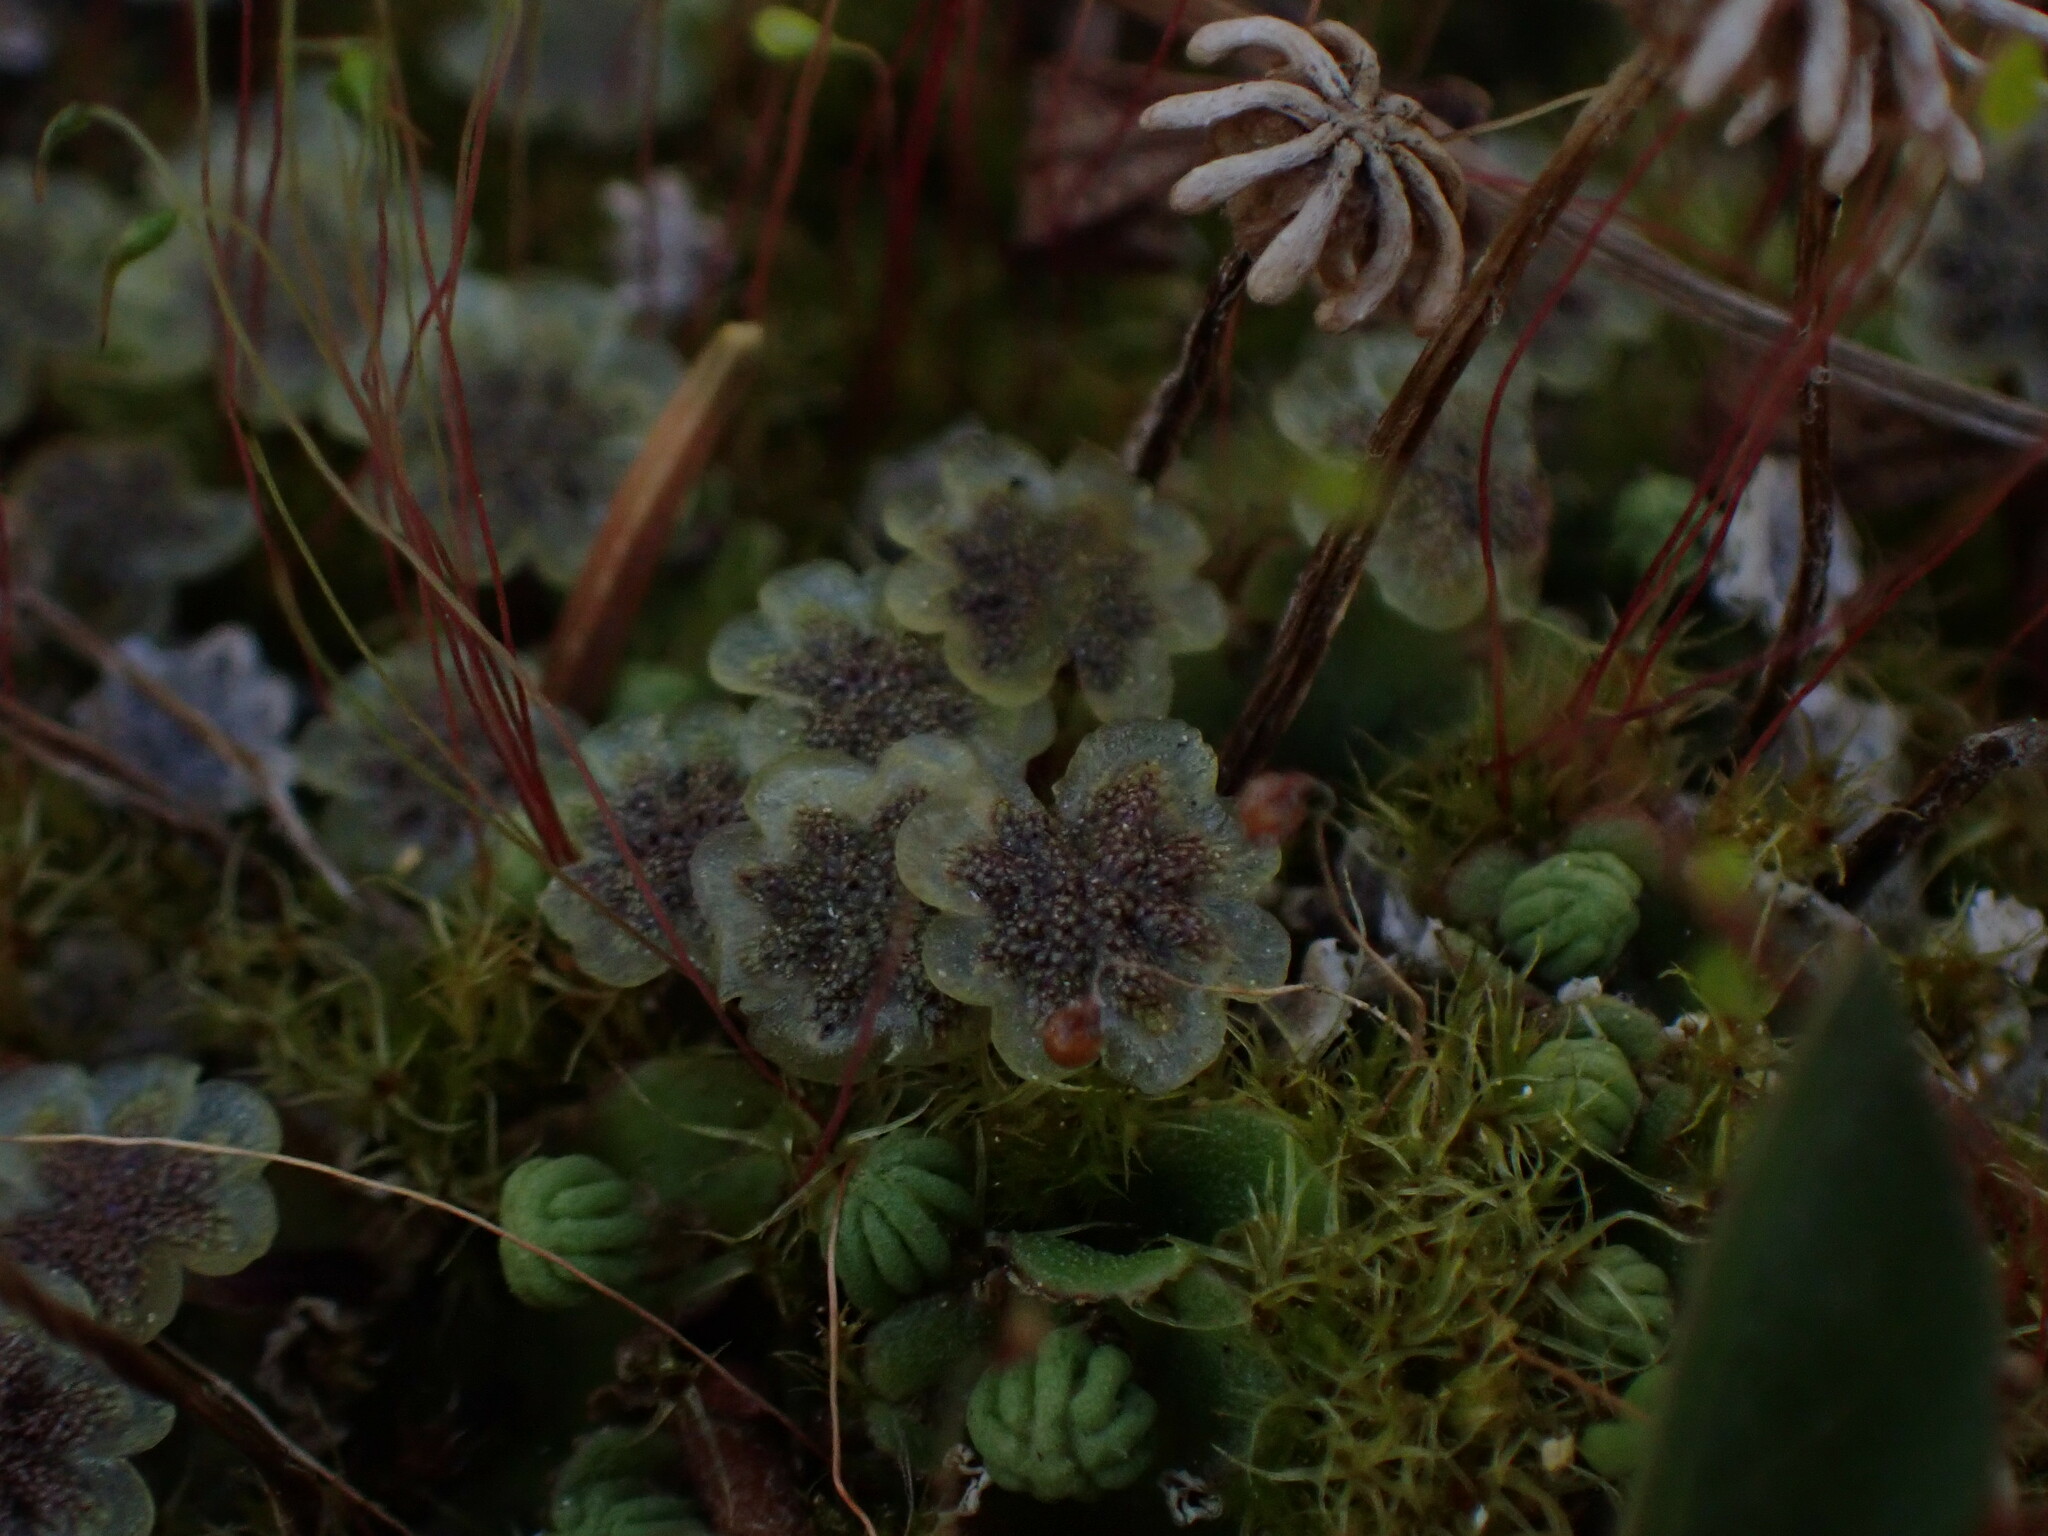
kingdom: Plantae
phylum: Marchantiophyta
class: Marchantiopsida
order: Marchantiales
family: Marchantiaceae
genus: Marchantia
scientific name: Marchantia polymorpha
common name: Common liverwort
